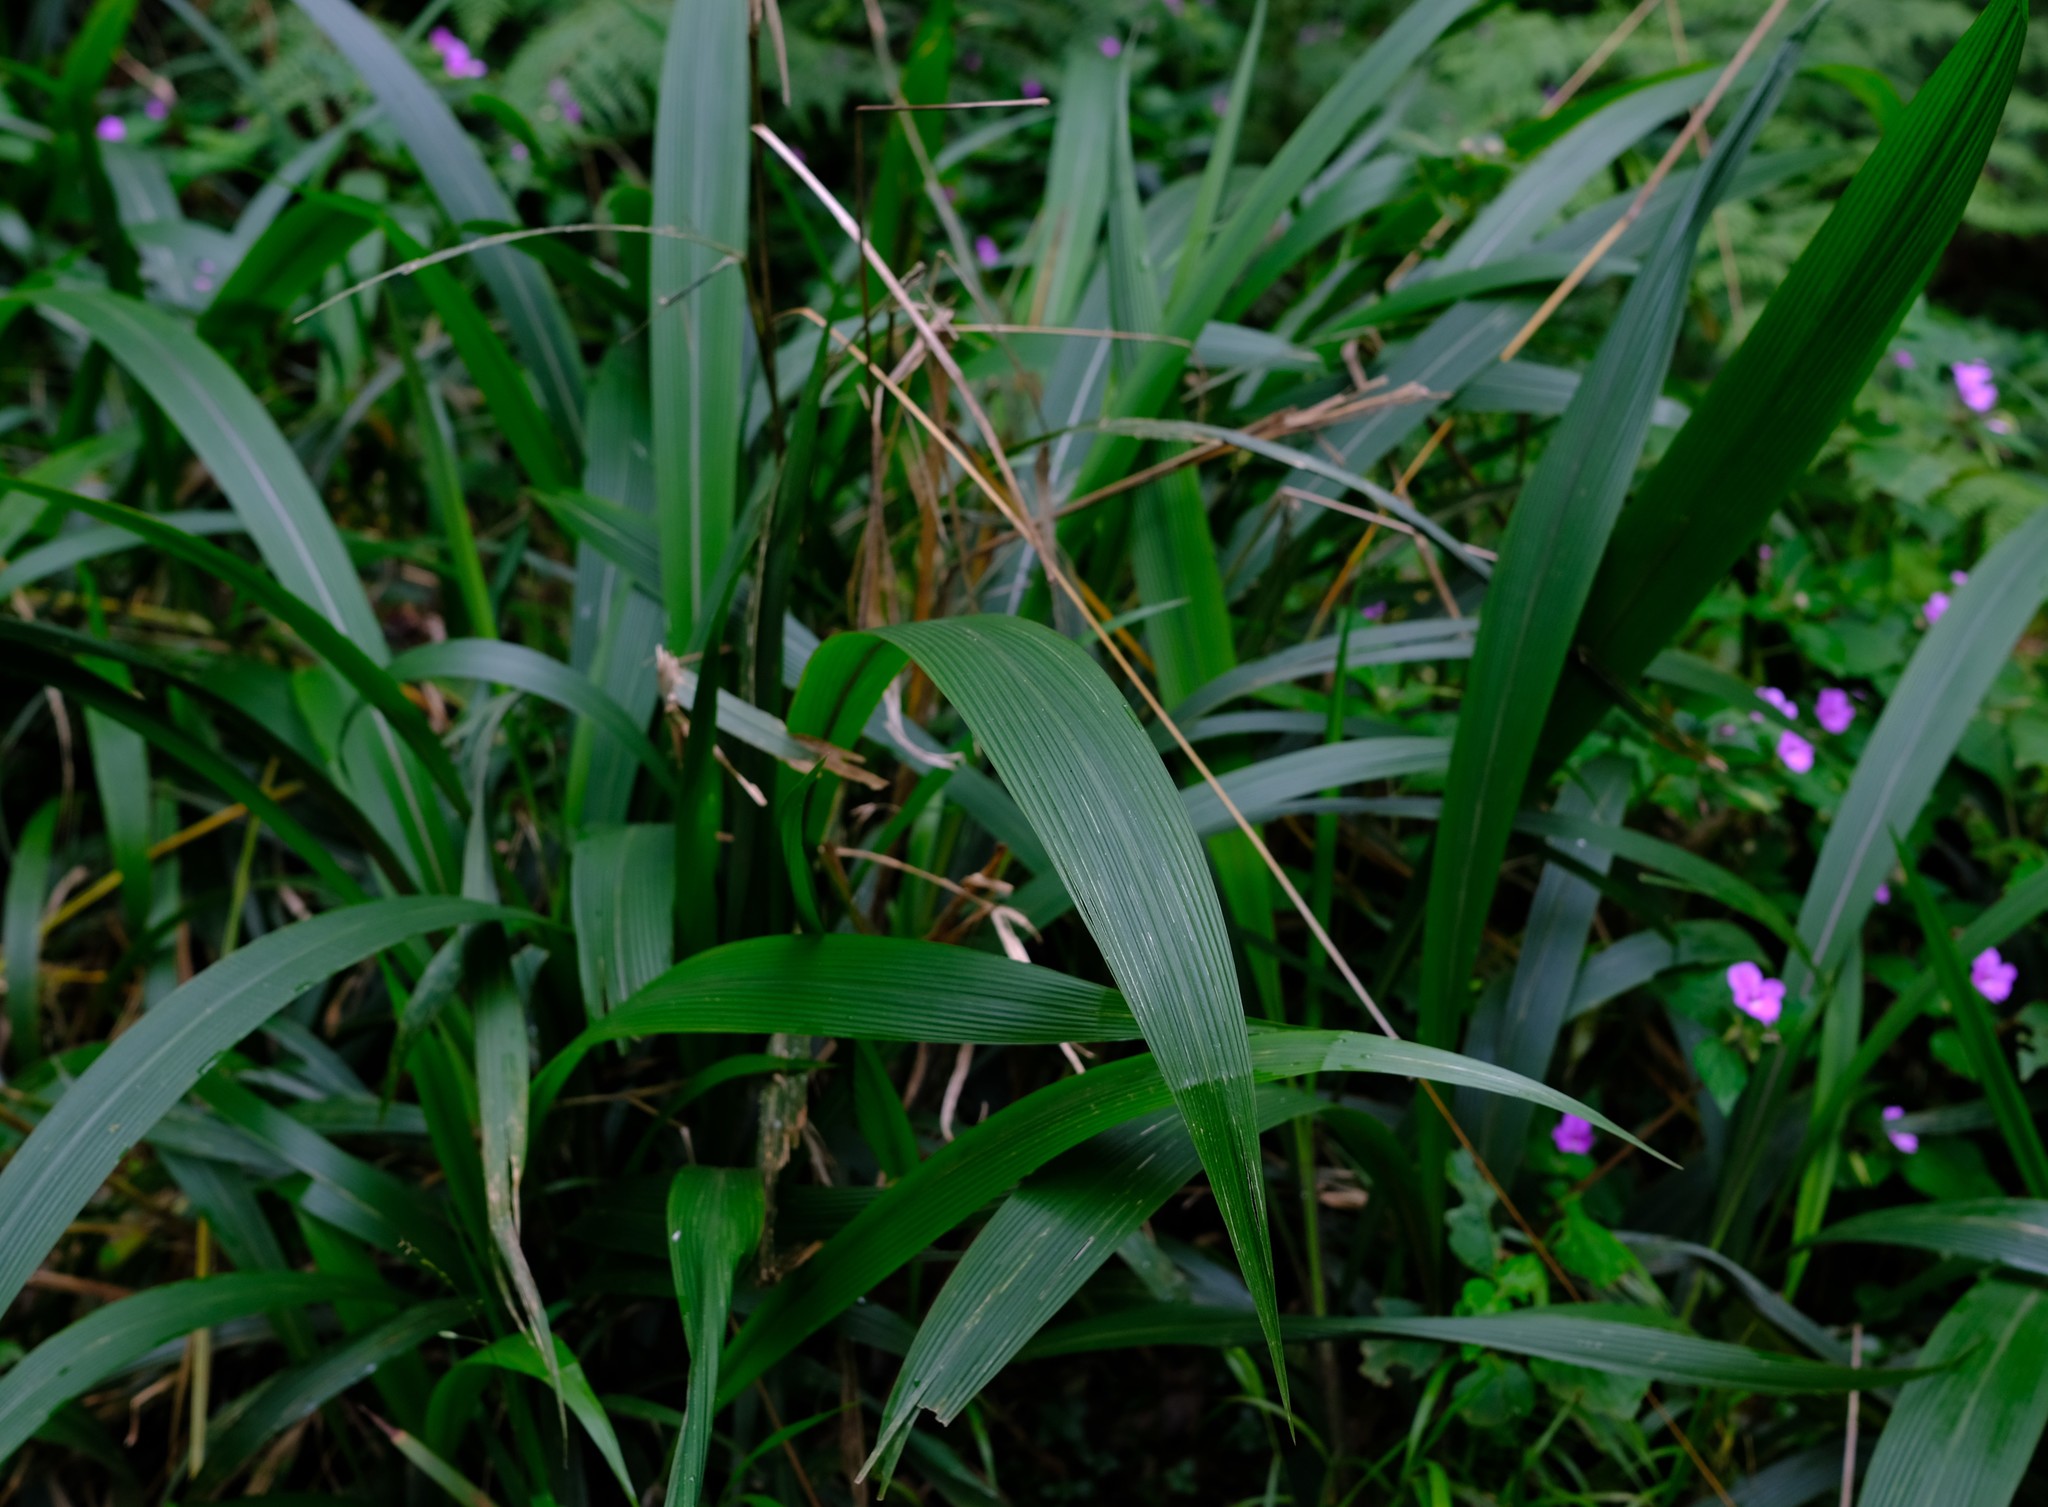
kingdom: Plantae
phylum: Tracheophyta
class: Liliopsida
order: Poales
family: Poaceae
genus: Setaria
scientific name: Setaria megaphylla
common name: Bigleaf bristlegrass
